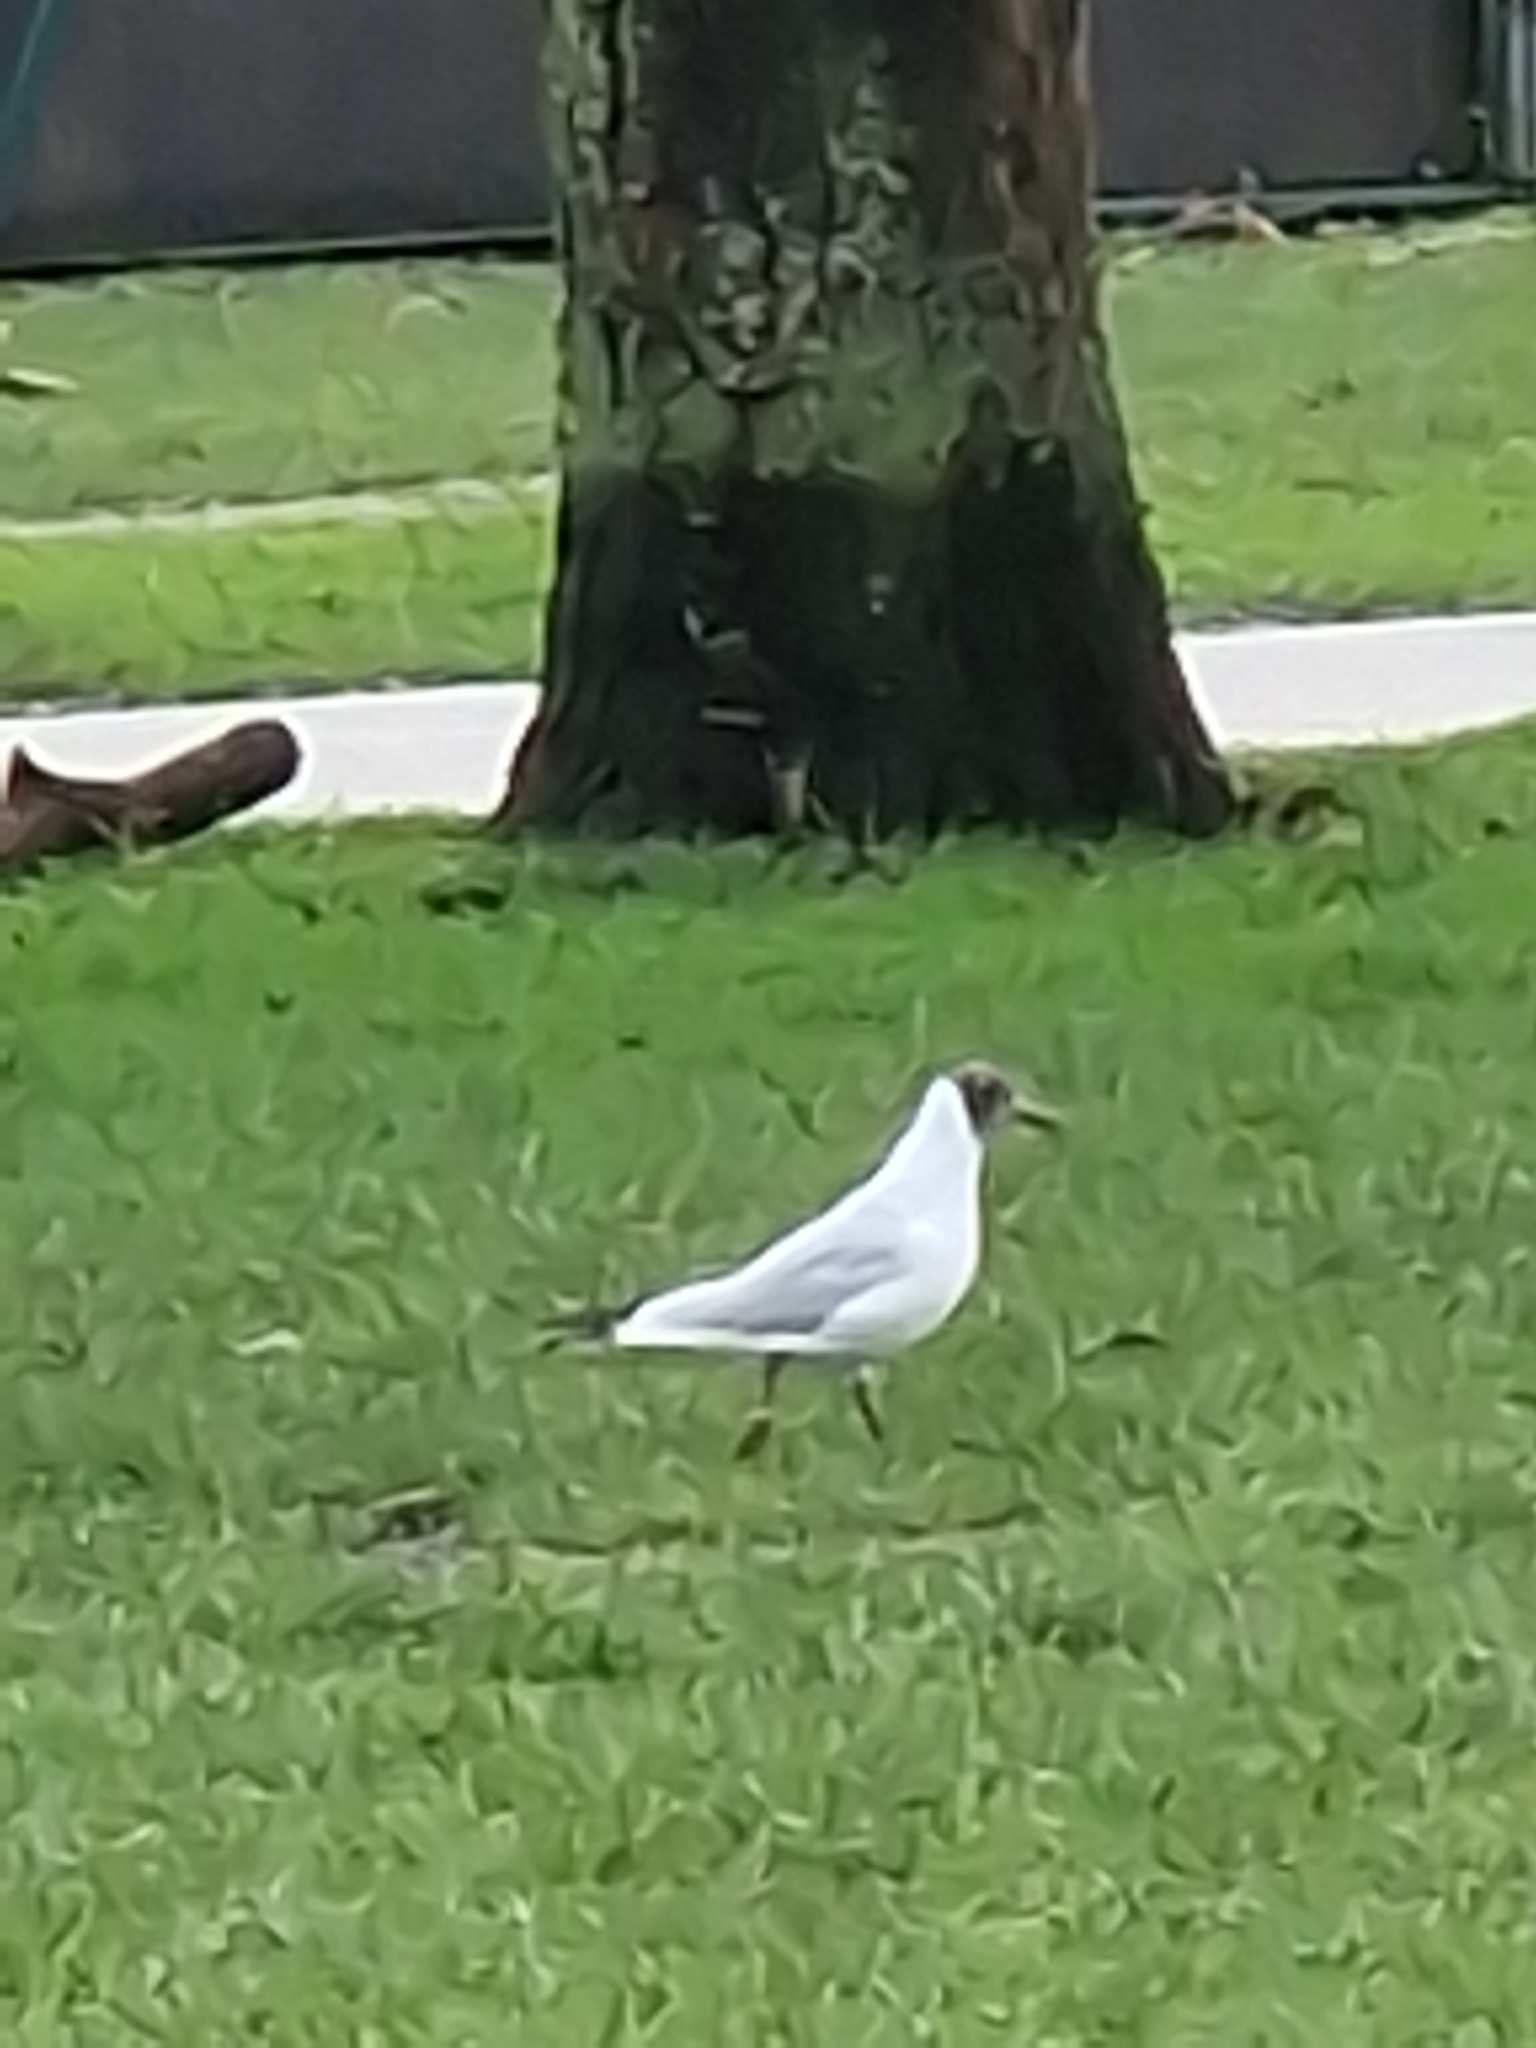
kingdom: Animalia
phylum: Chordata
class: Aves
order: Charadriiformes
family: Laridae
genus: Chroicocephalus
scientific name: Chroicocephalus ridibundus
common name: Black-headed gull
